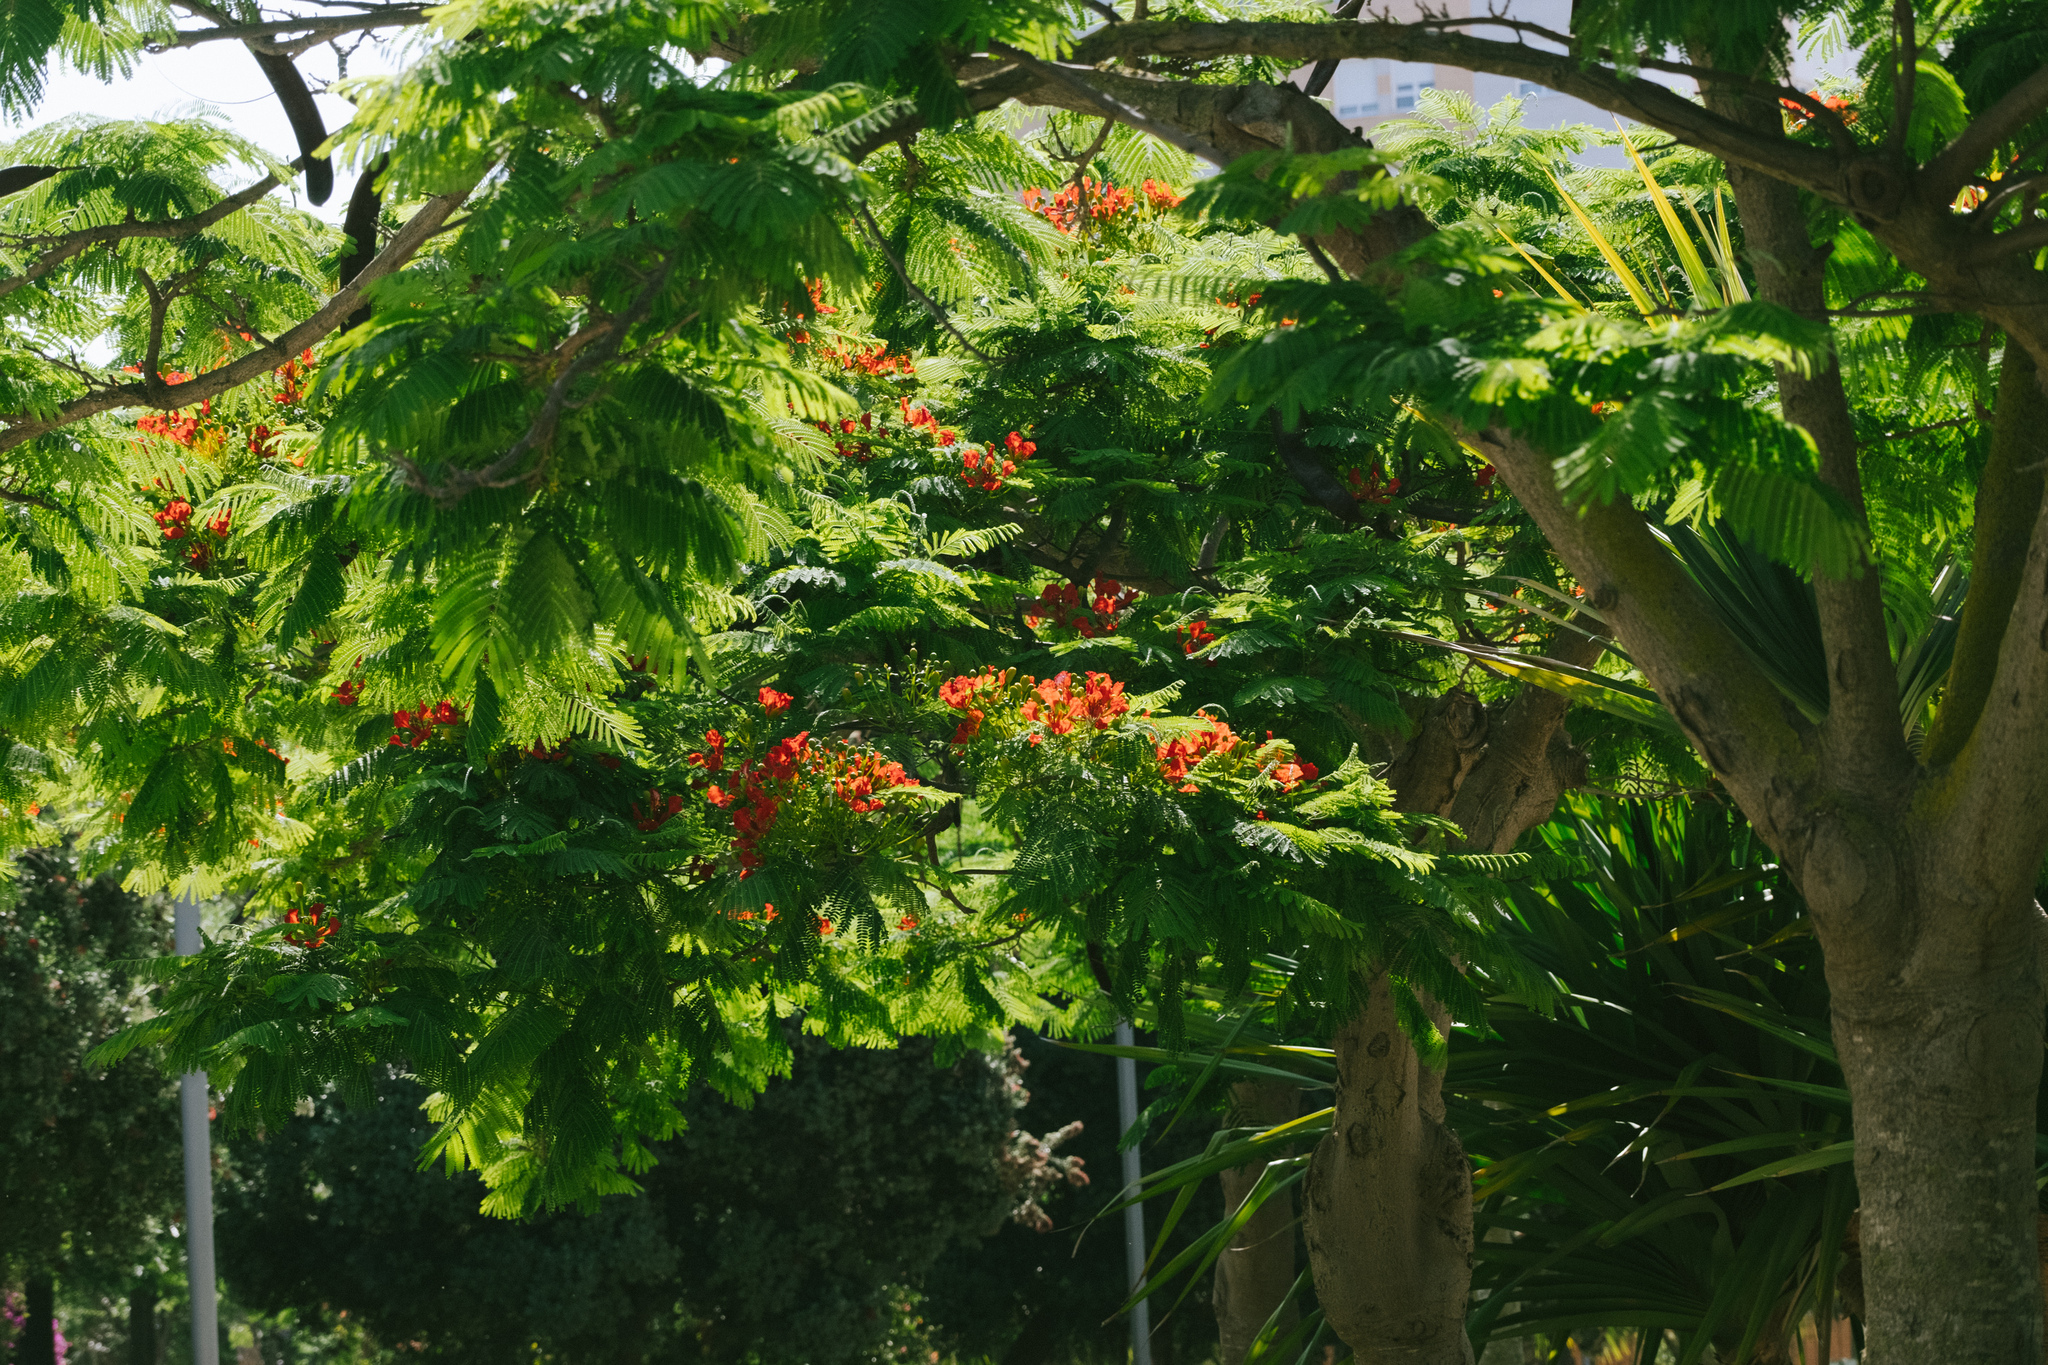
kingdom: Plantae
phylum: Tracheophyta
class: Magnoliopsida
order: Fabales
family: Fabaceae
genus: Delonix
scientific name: Delonix regia
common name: Royal poinciana
